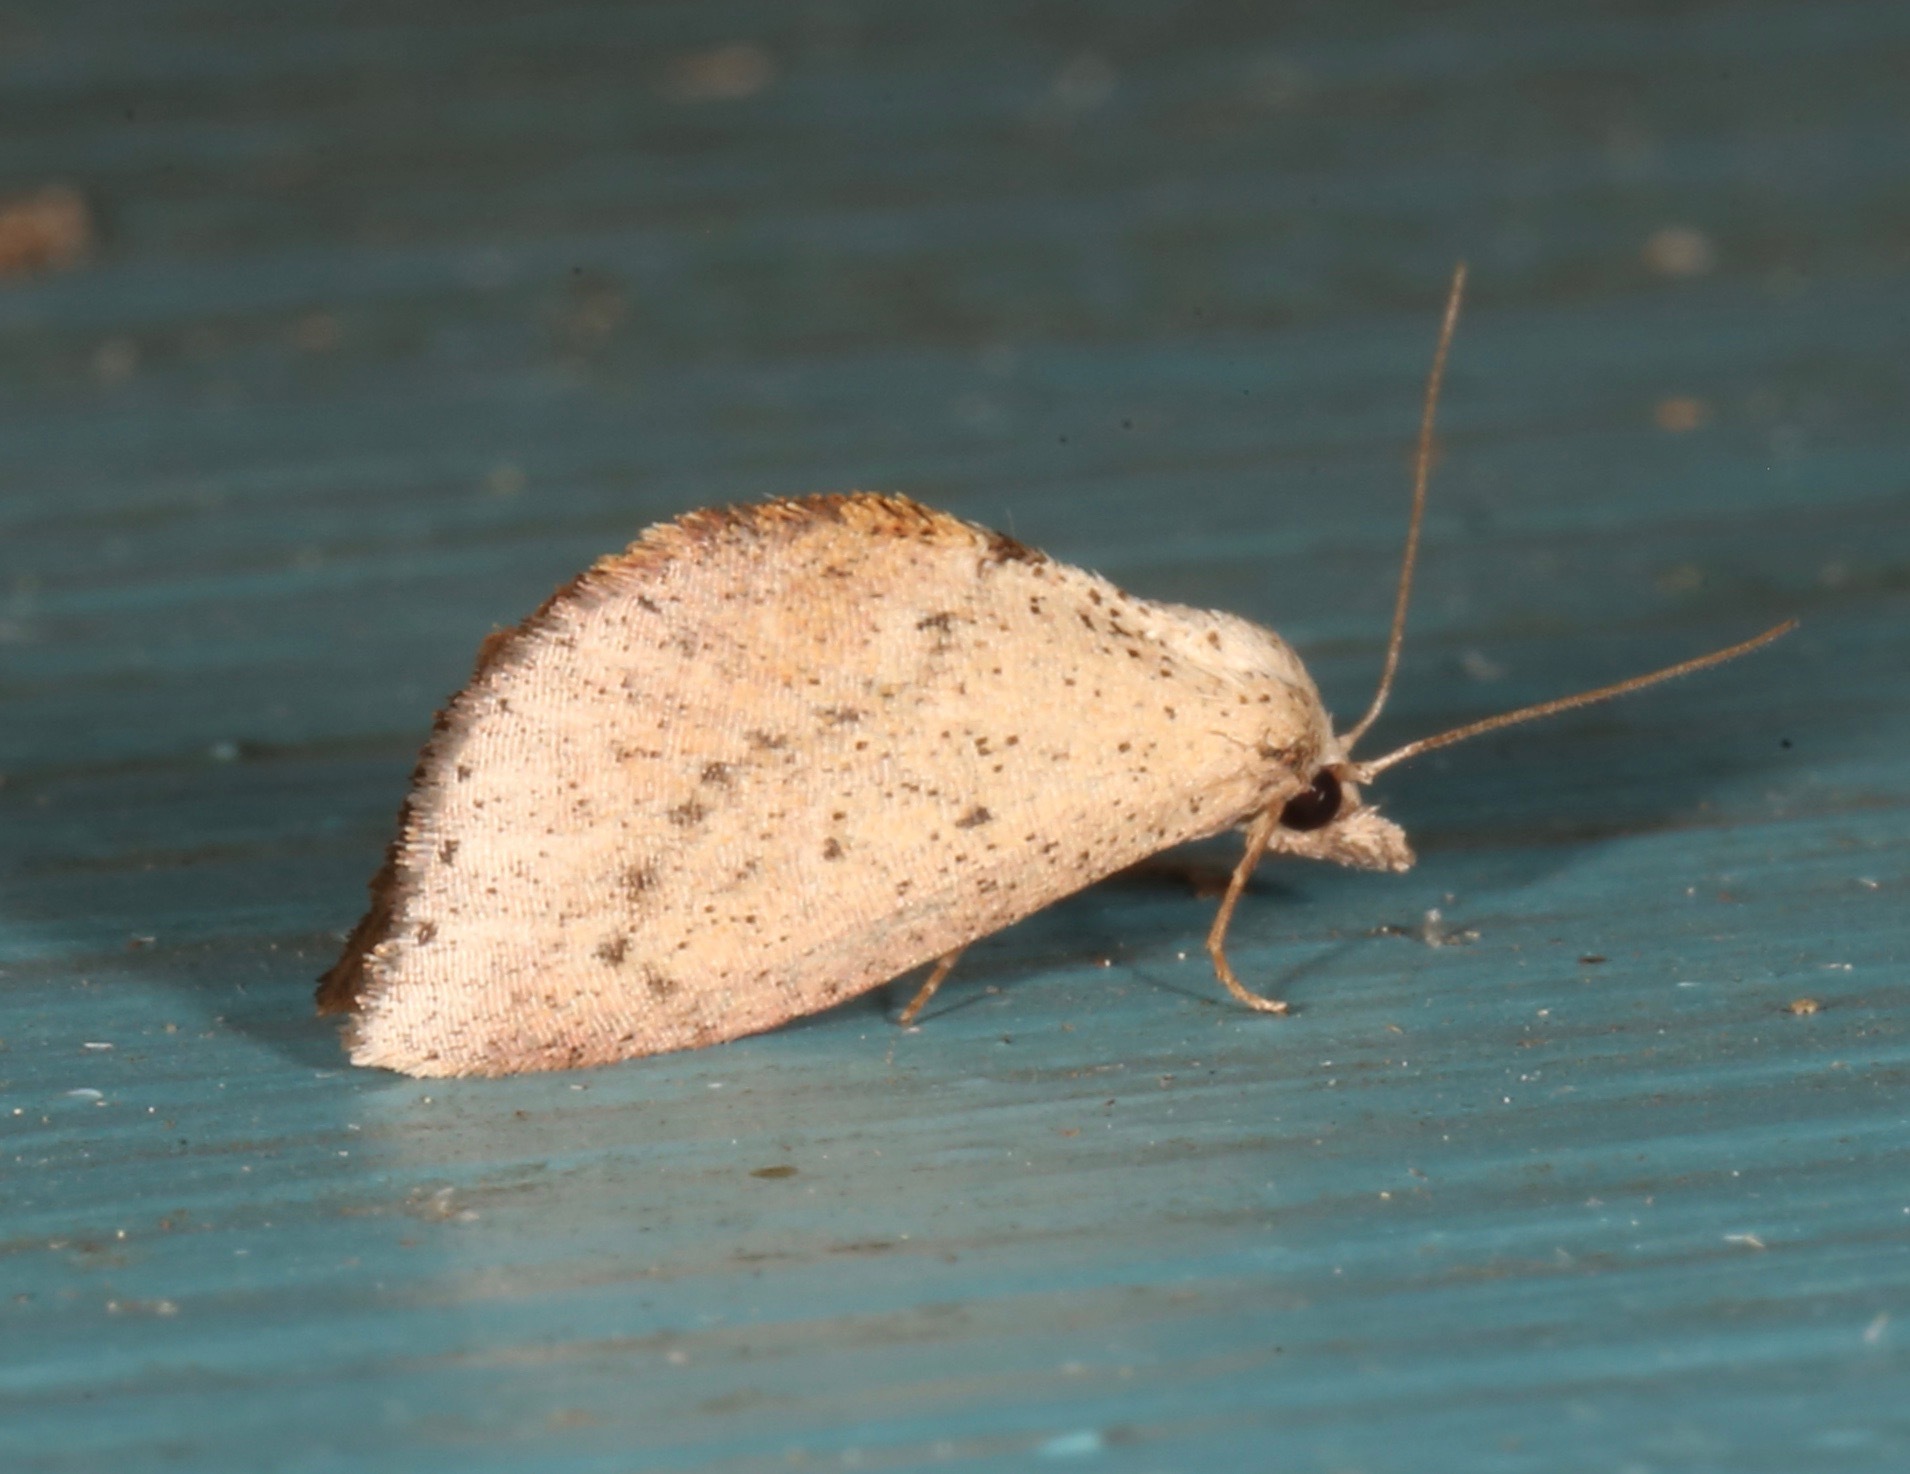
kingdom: Animalia
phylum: Arthropoda
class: Insecta
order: Lepidoptera
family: Noctuidae
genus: Proroblemma
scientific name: Proroblemma testa
